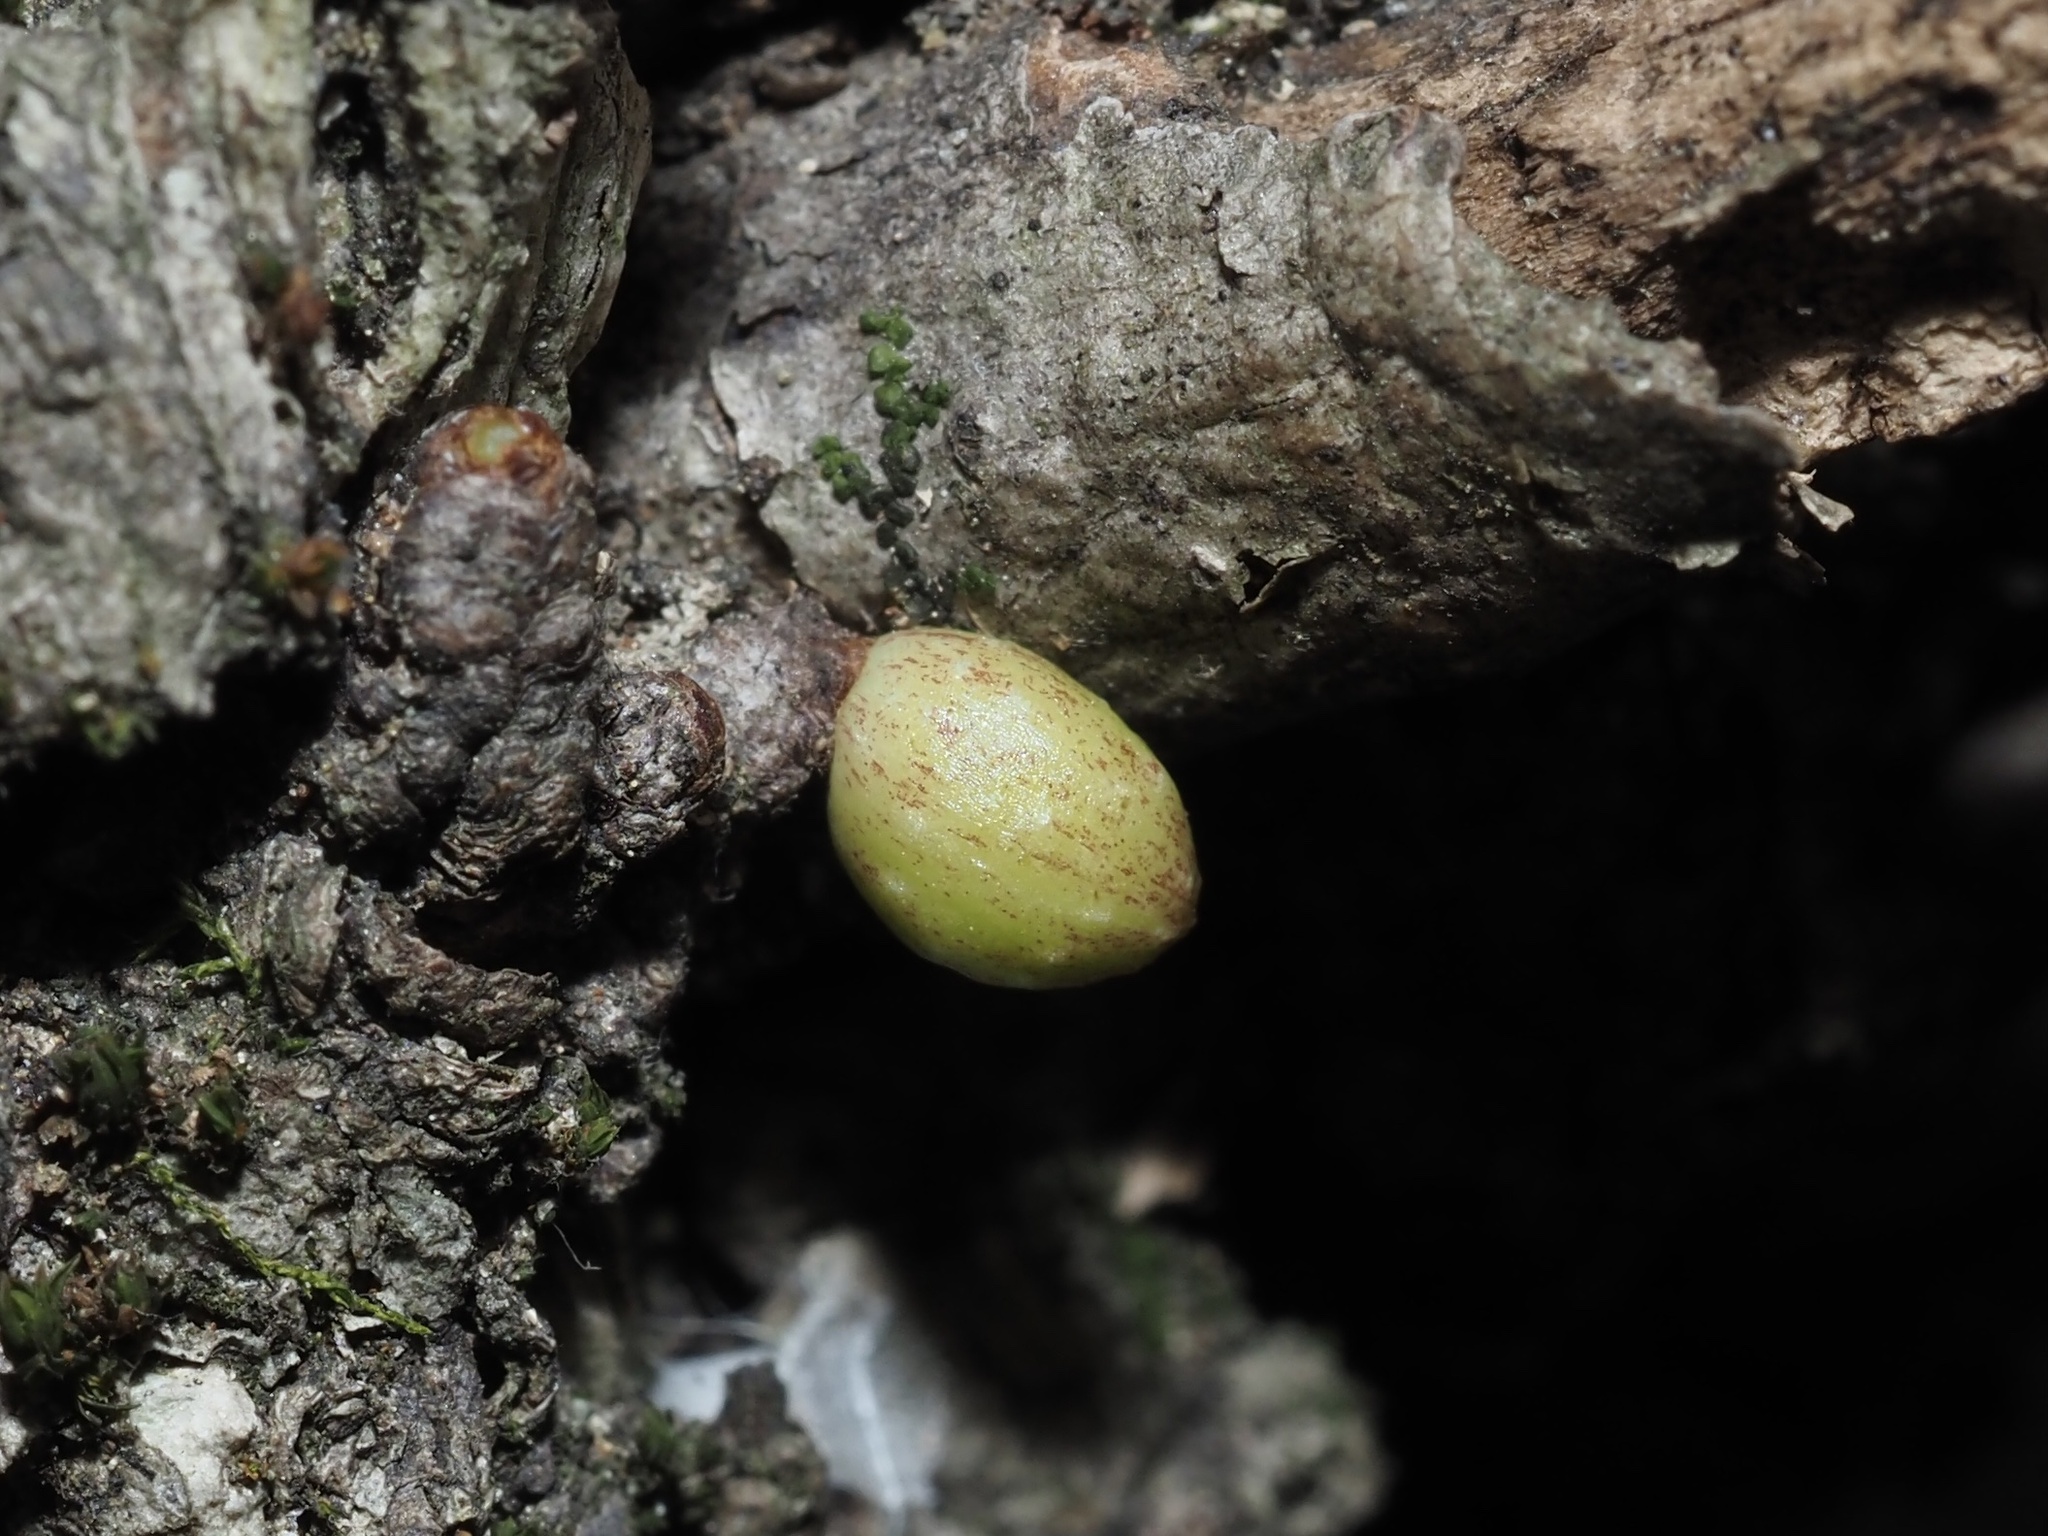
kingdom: Animalia
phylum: Arthropoda
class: Insecta
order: Hymenoptera
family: Cynipidae
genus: Andricus
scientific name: Andricus
